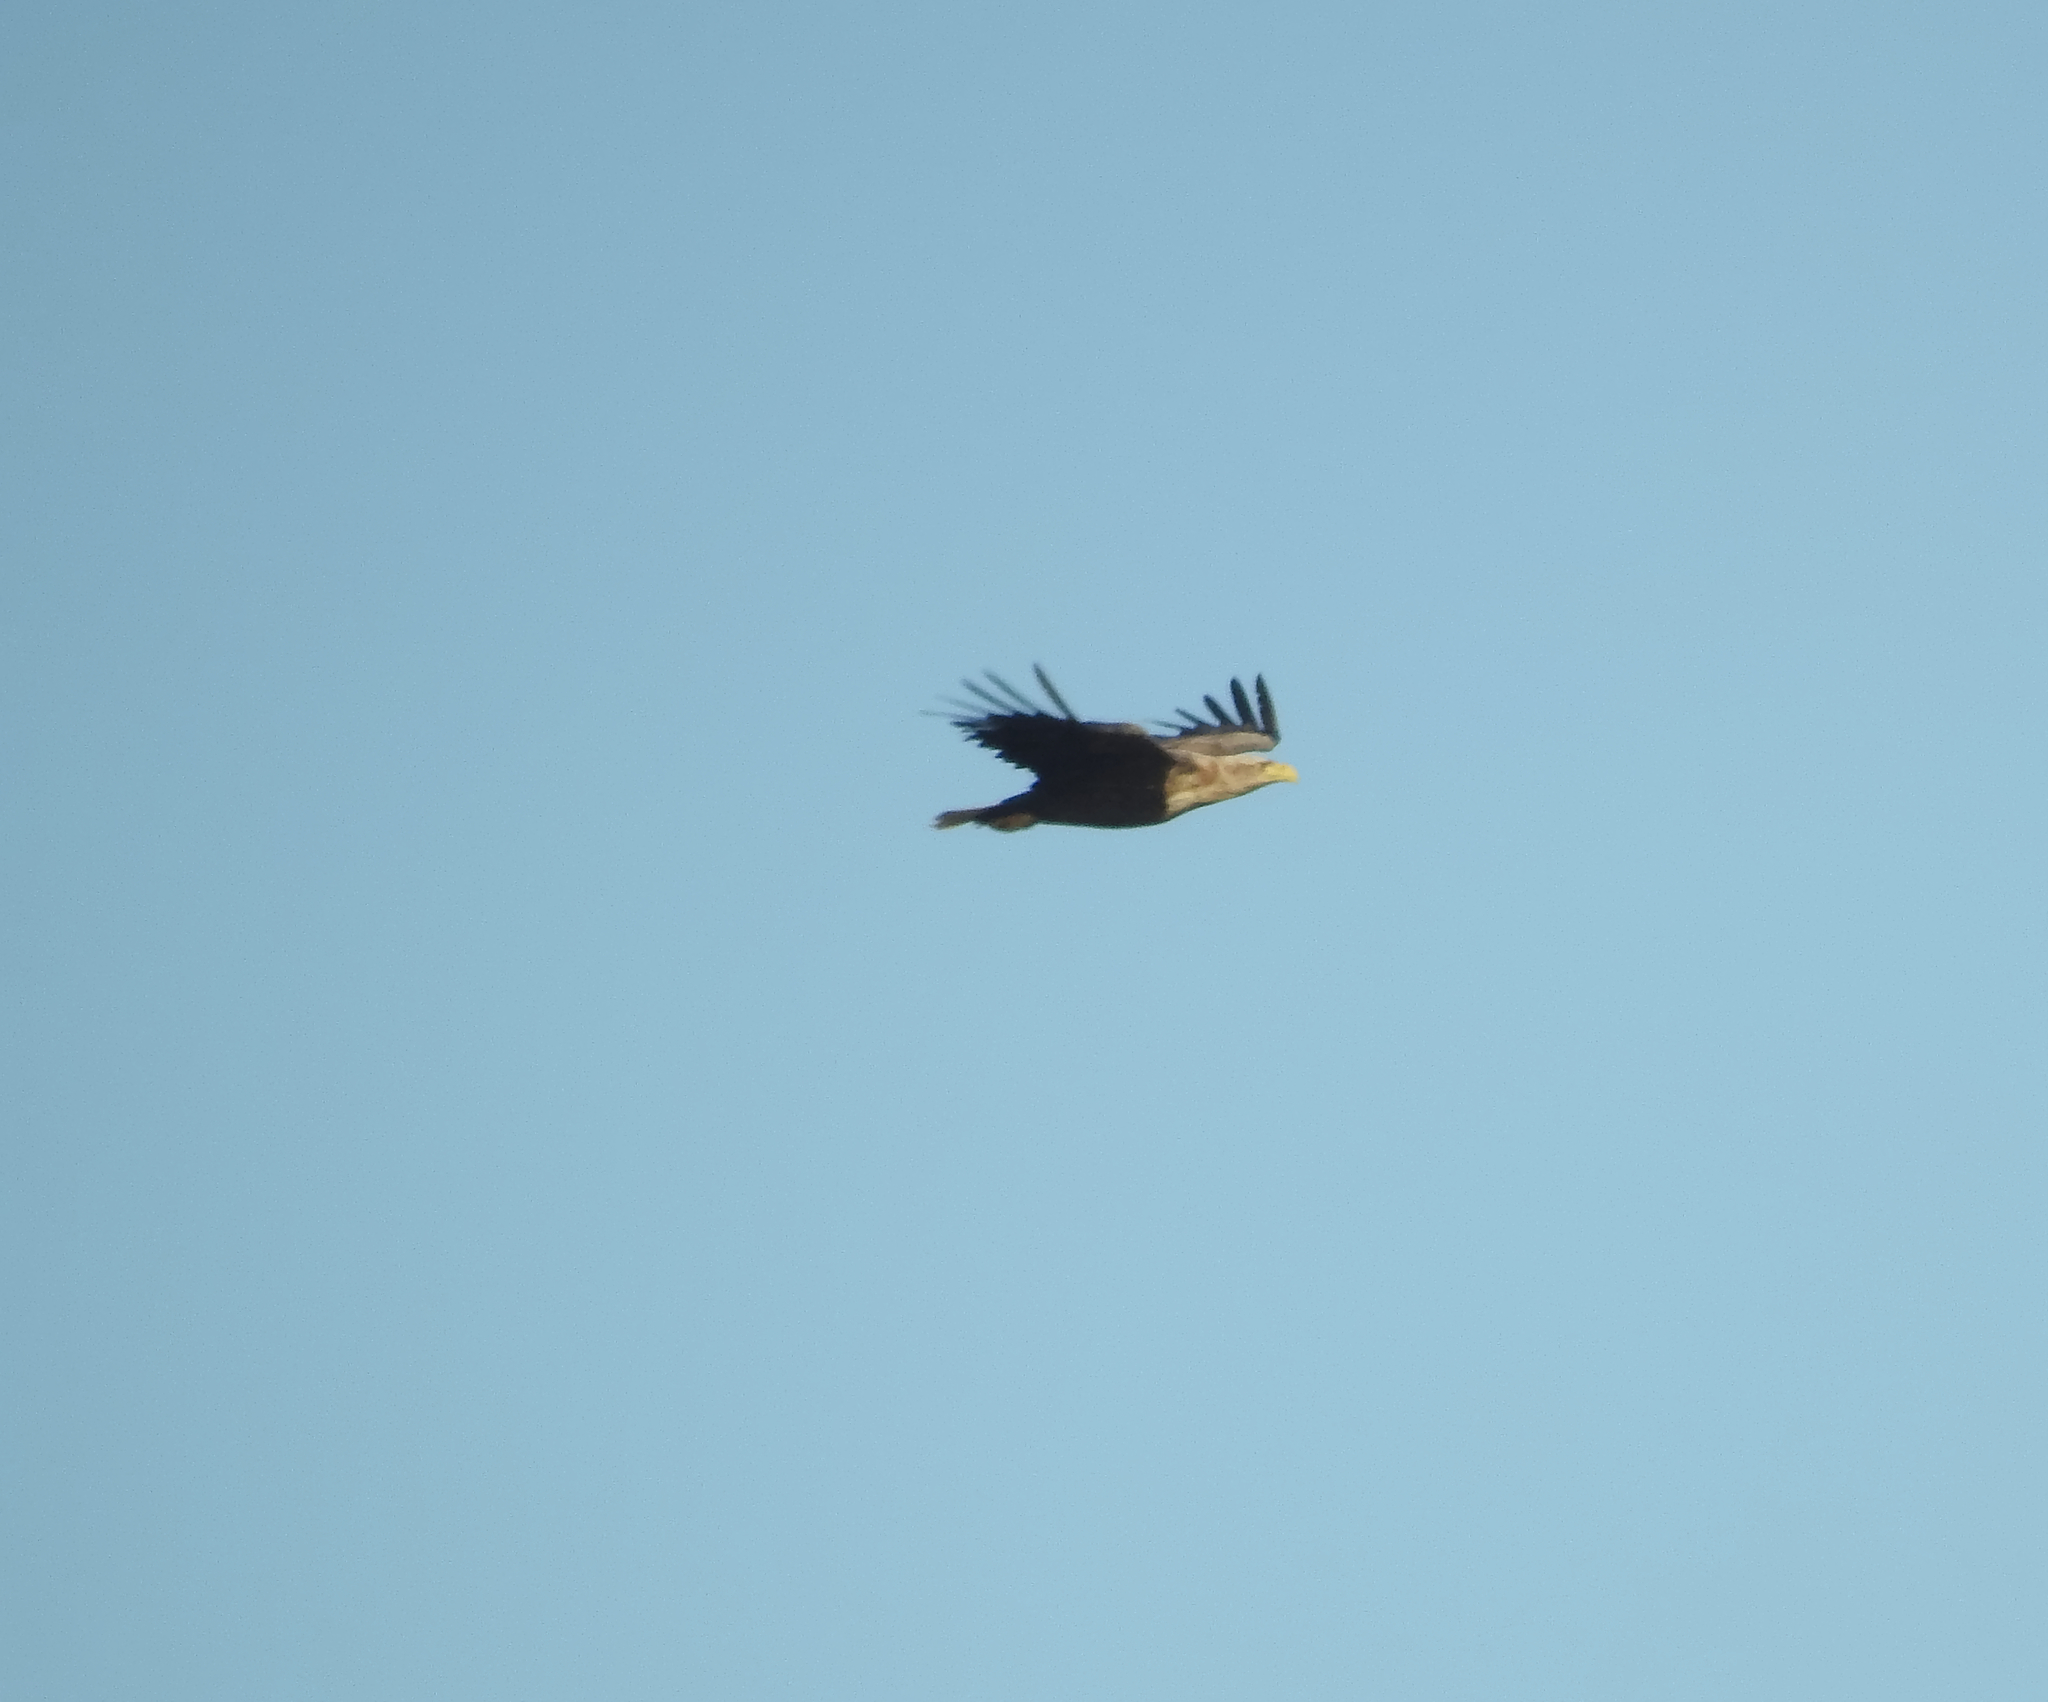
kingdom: Animalia
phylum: Chordata
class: Aves
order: Accipitriformes
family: Accipitridae
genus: Haliaeetus
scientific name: Haliaeetus albicilla
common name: White-tailed eagle
